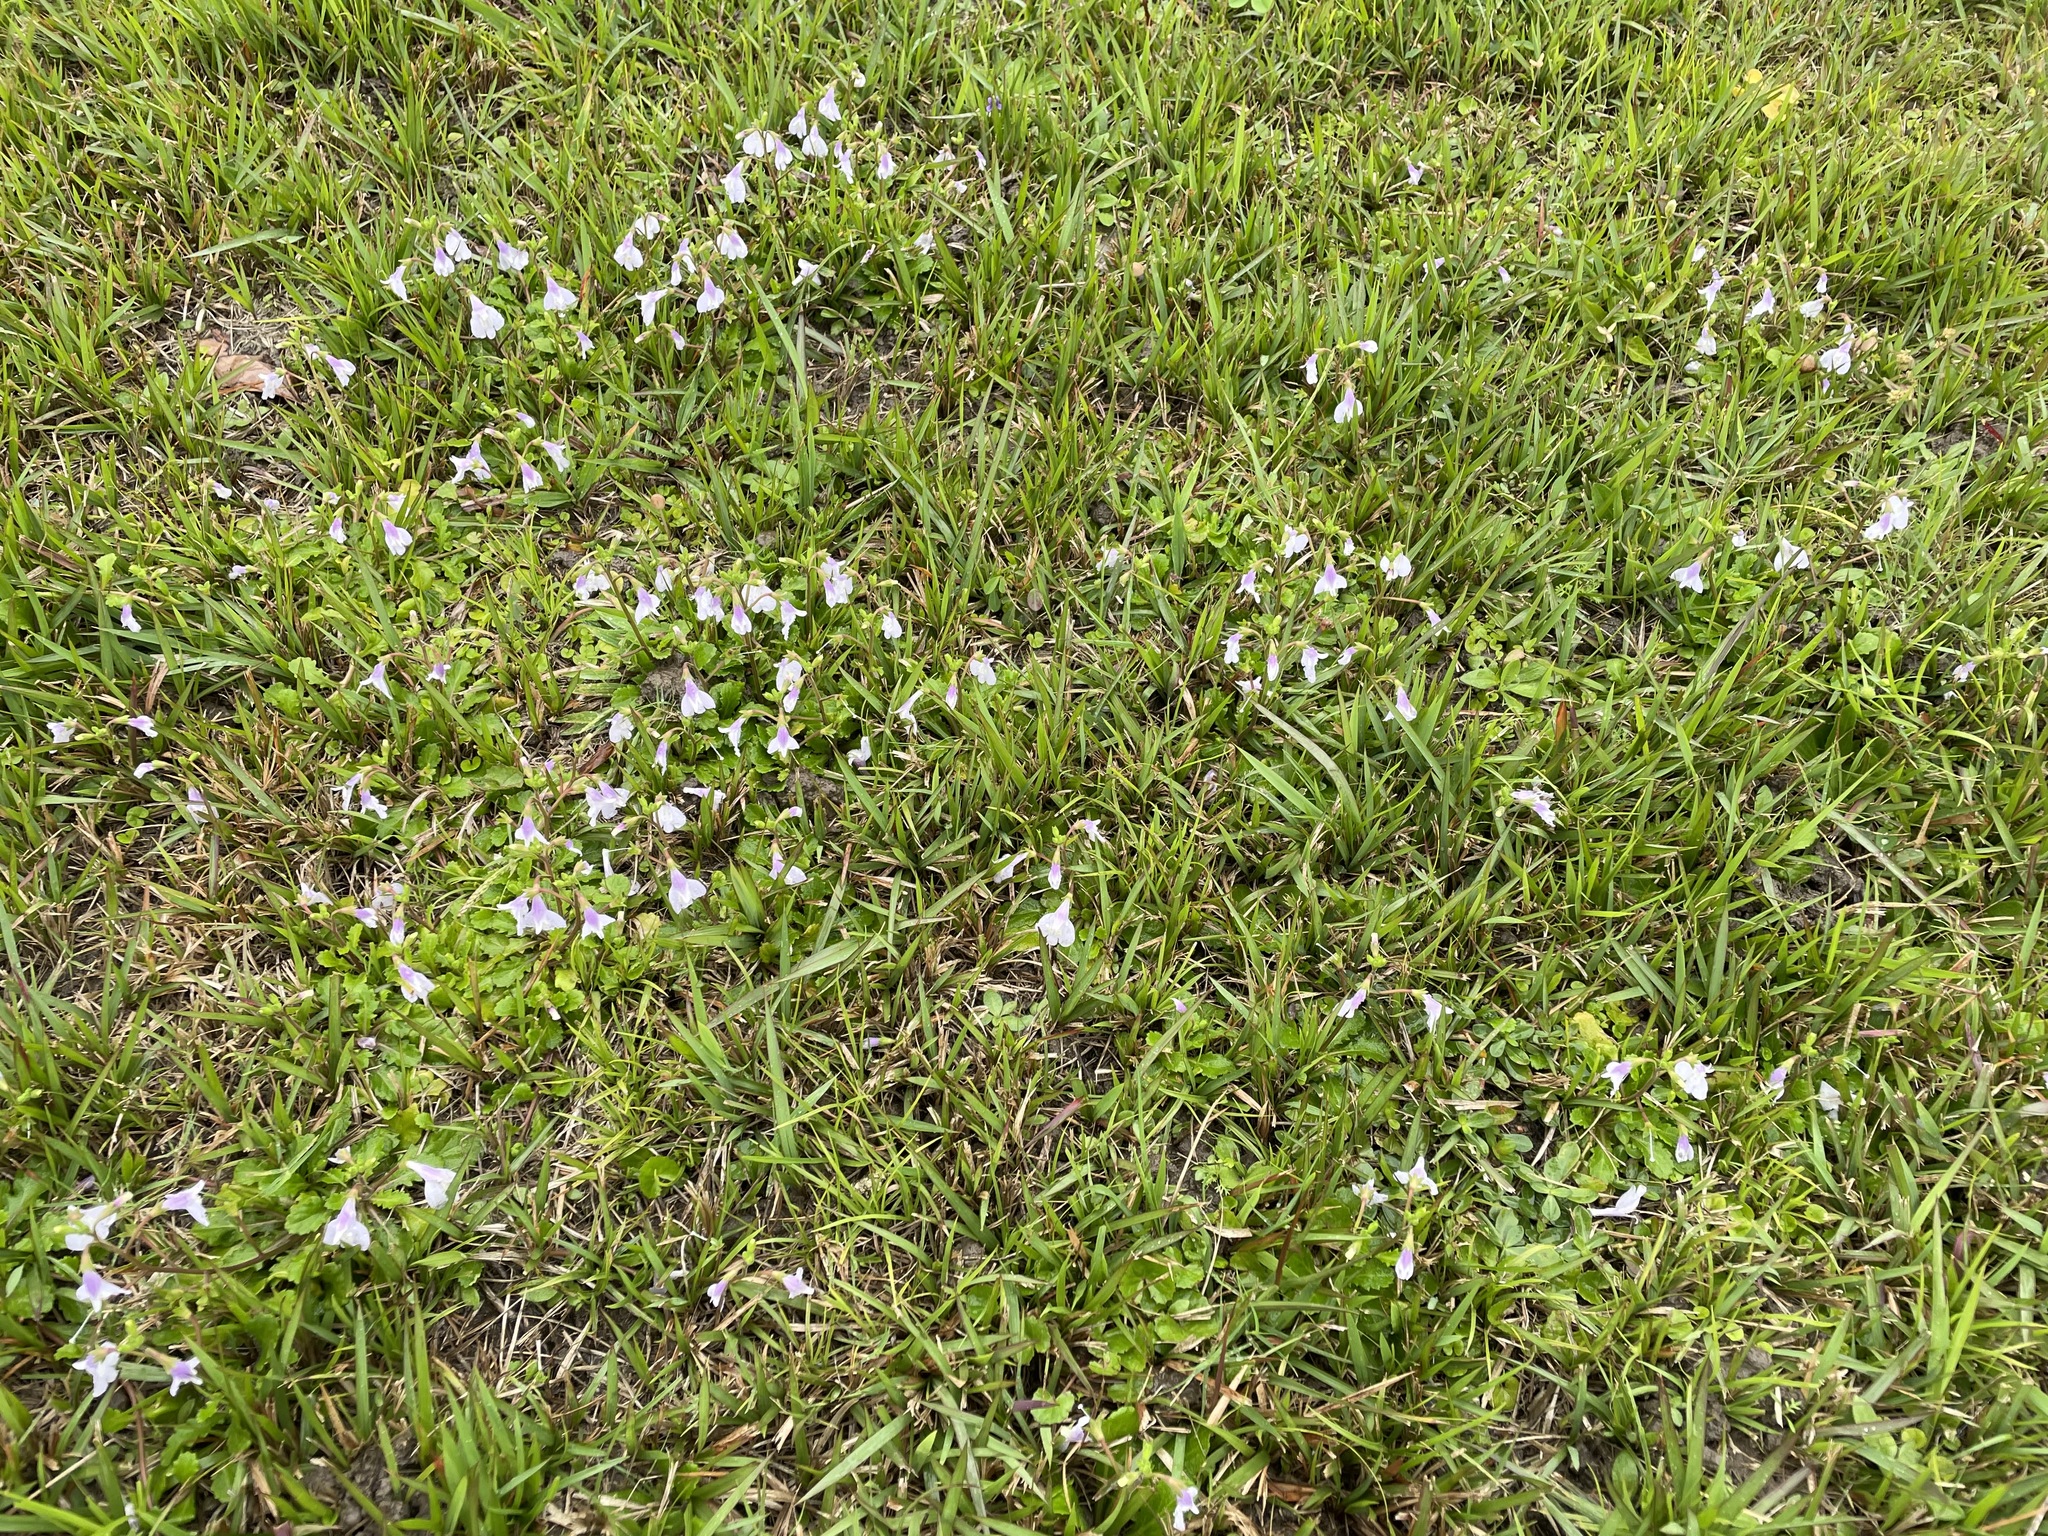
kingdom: Plantae
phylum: Tracheophyta
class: Magnoliopsida
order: Lamiales
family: Mazaceae
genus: Mazus
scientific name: Mazus fauriei
